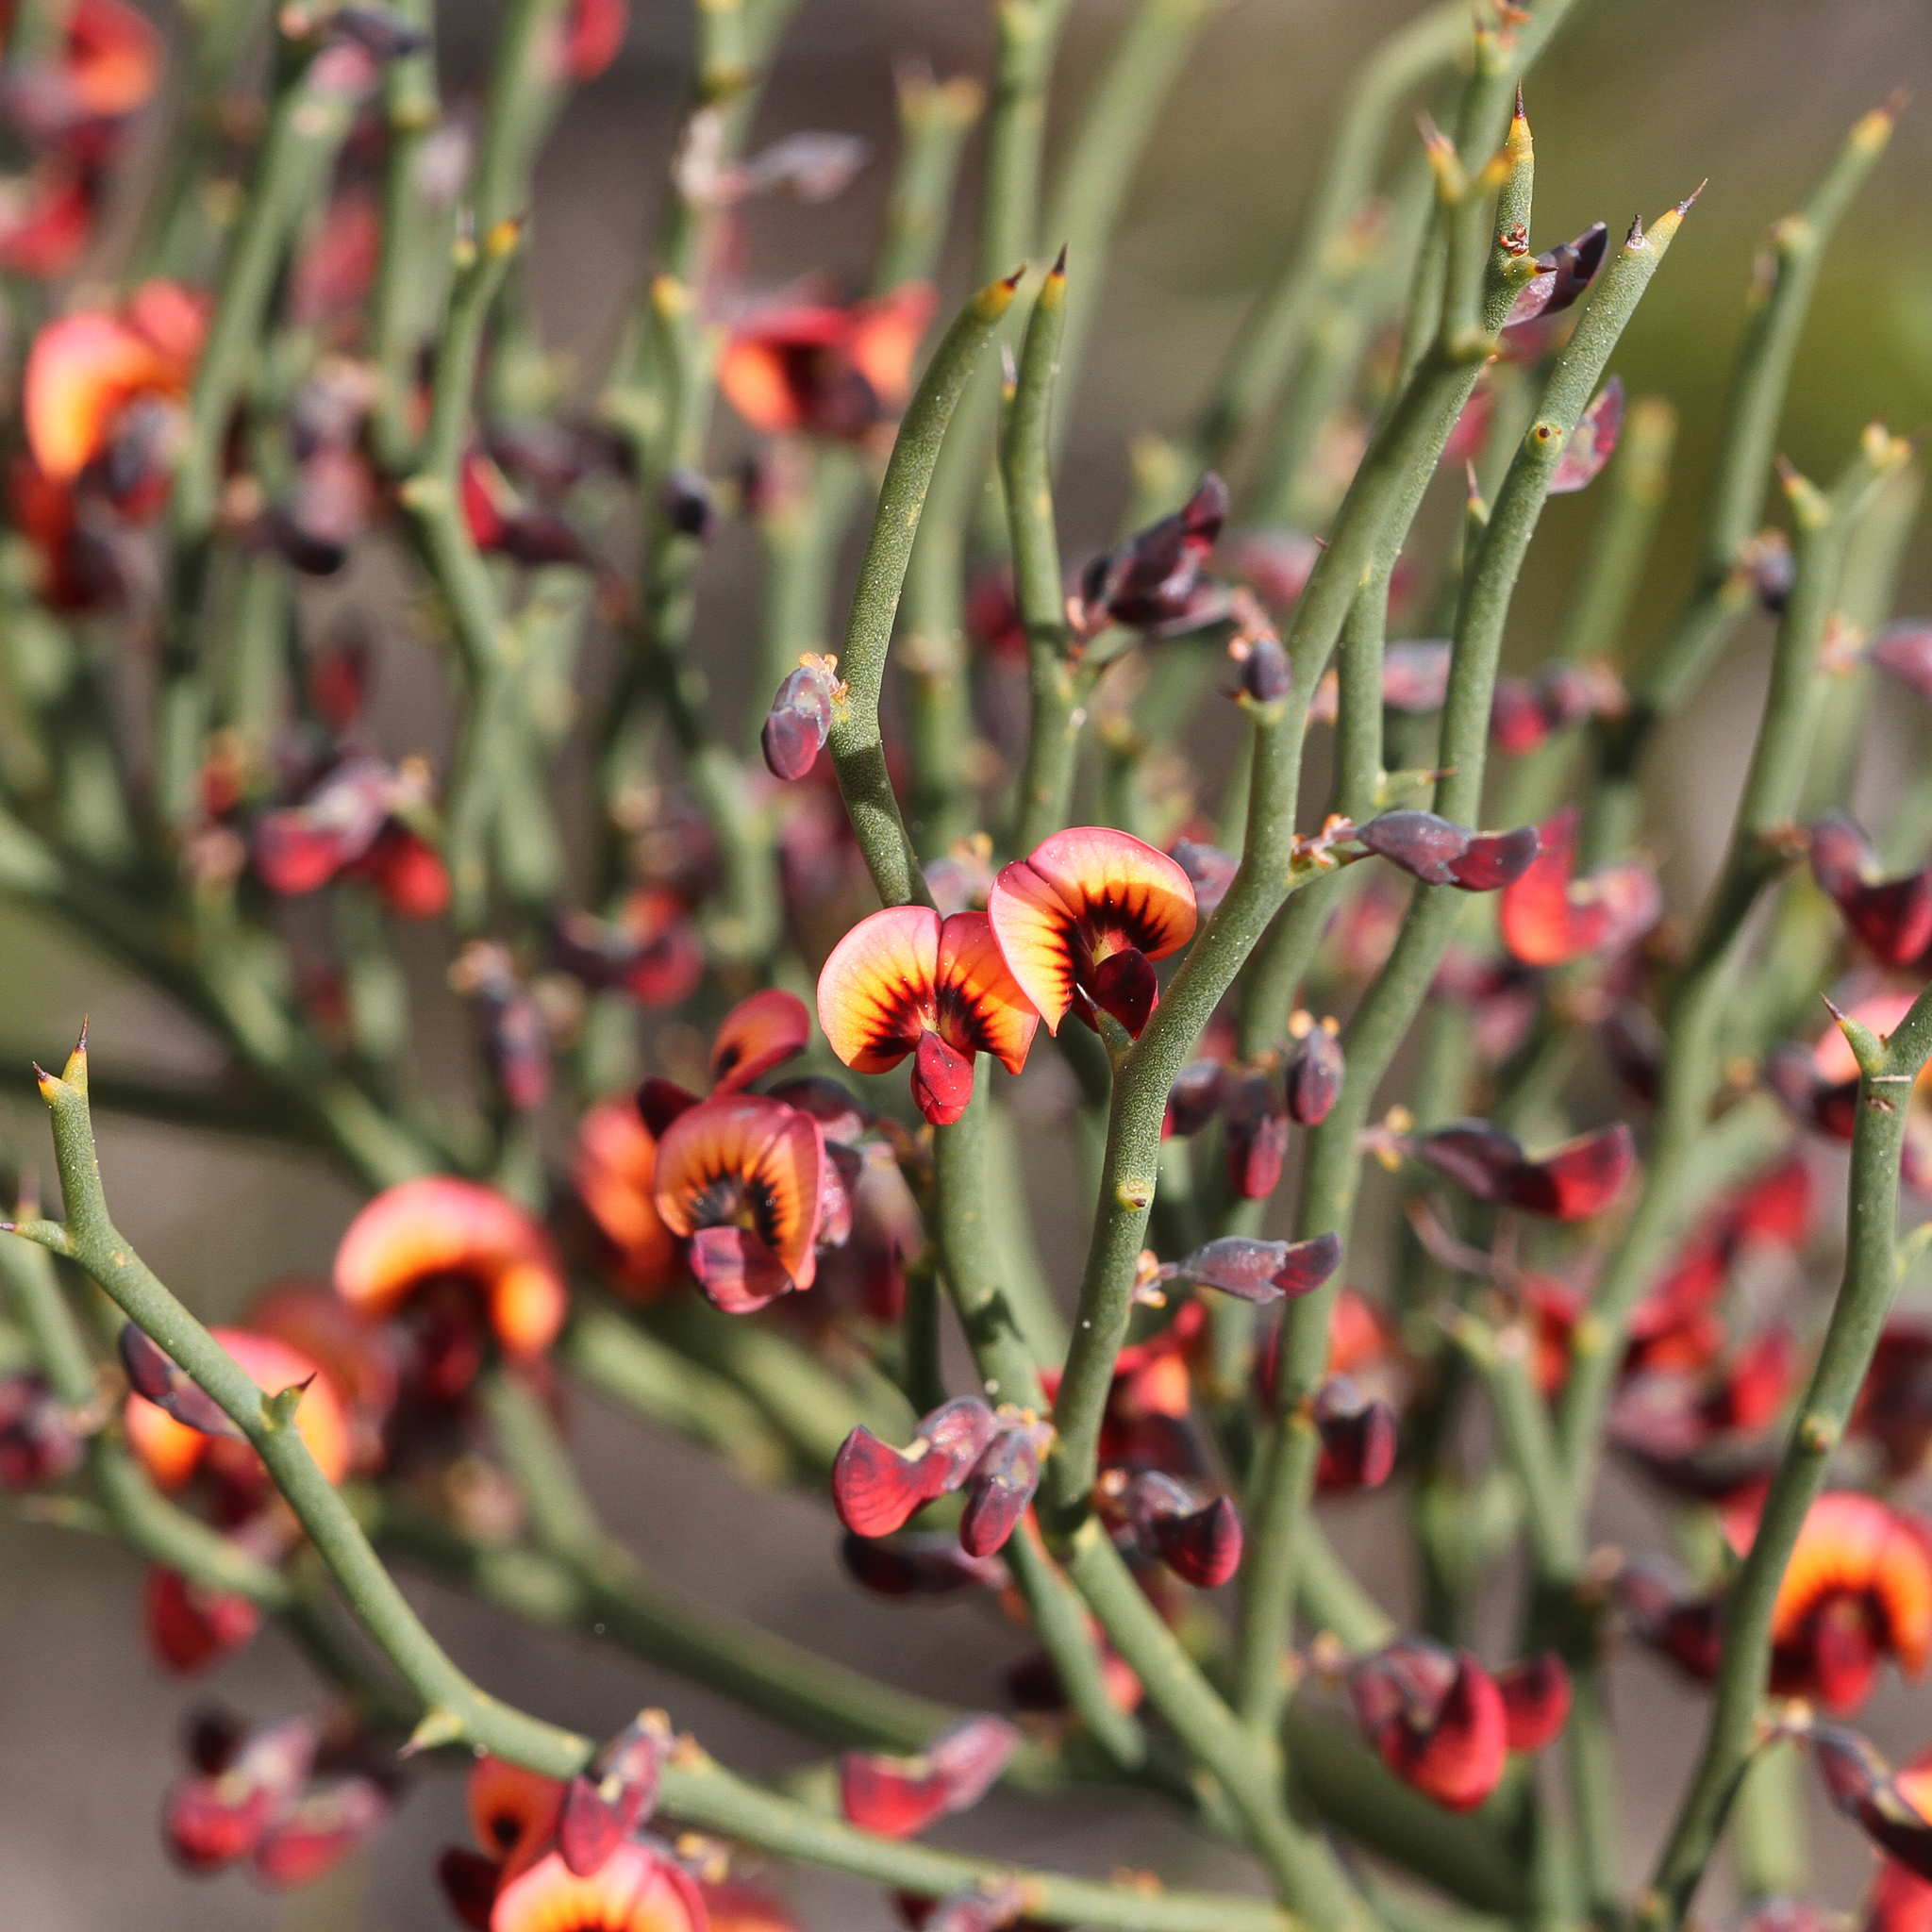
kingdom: Plantae
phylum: Tracheophyta
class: Magnoliopsida
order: Fabales
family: Fabaceae
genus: Daviesia
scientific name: Daviesia brevifolia
